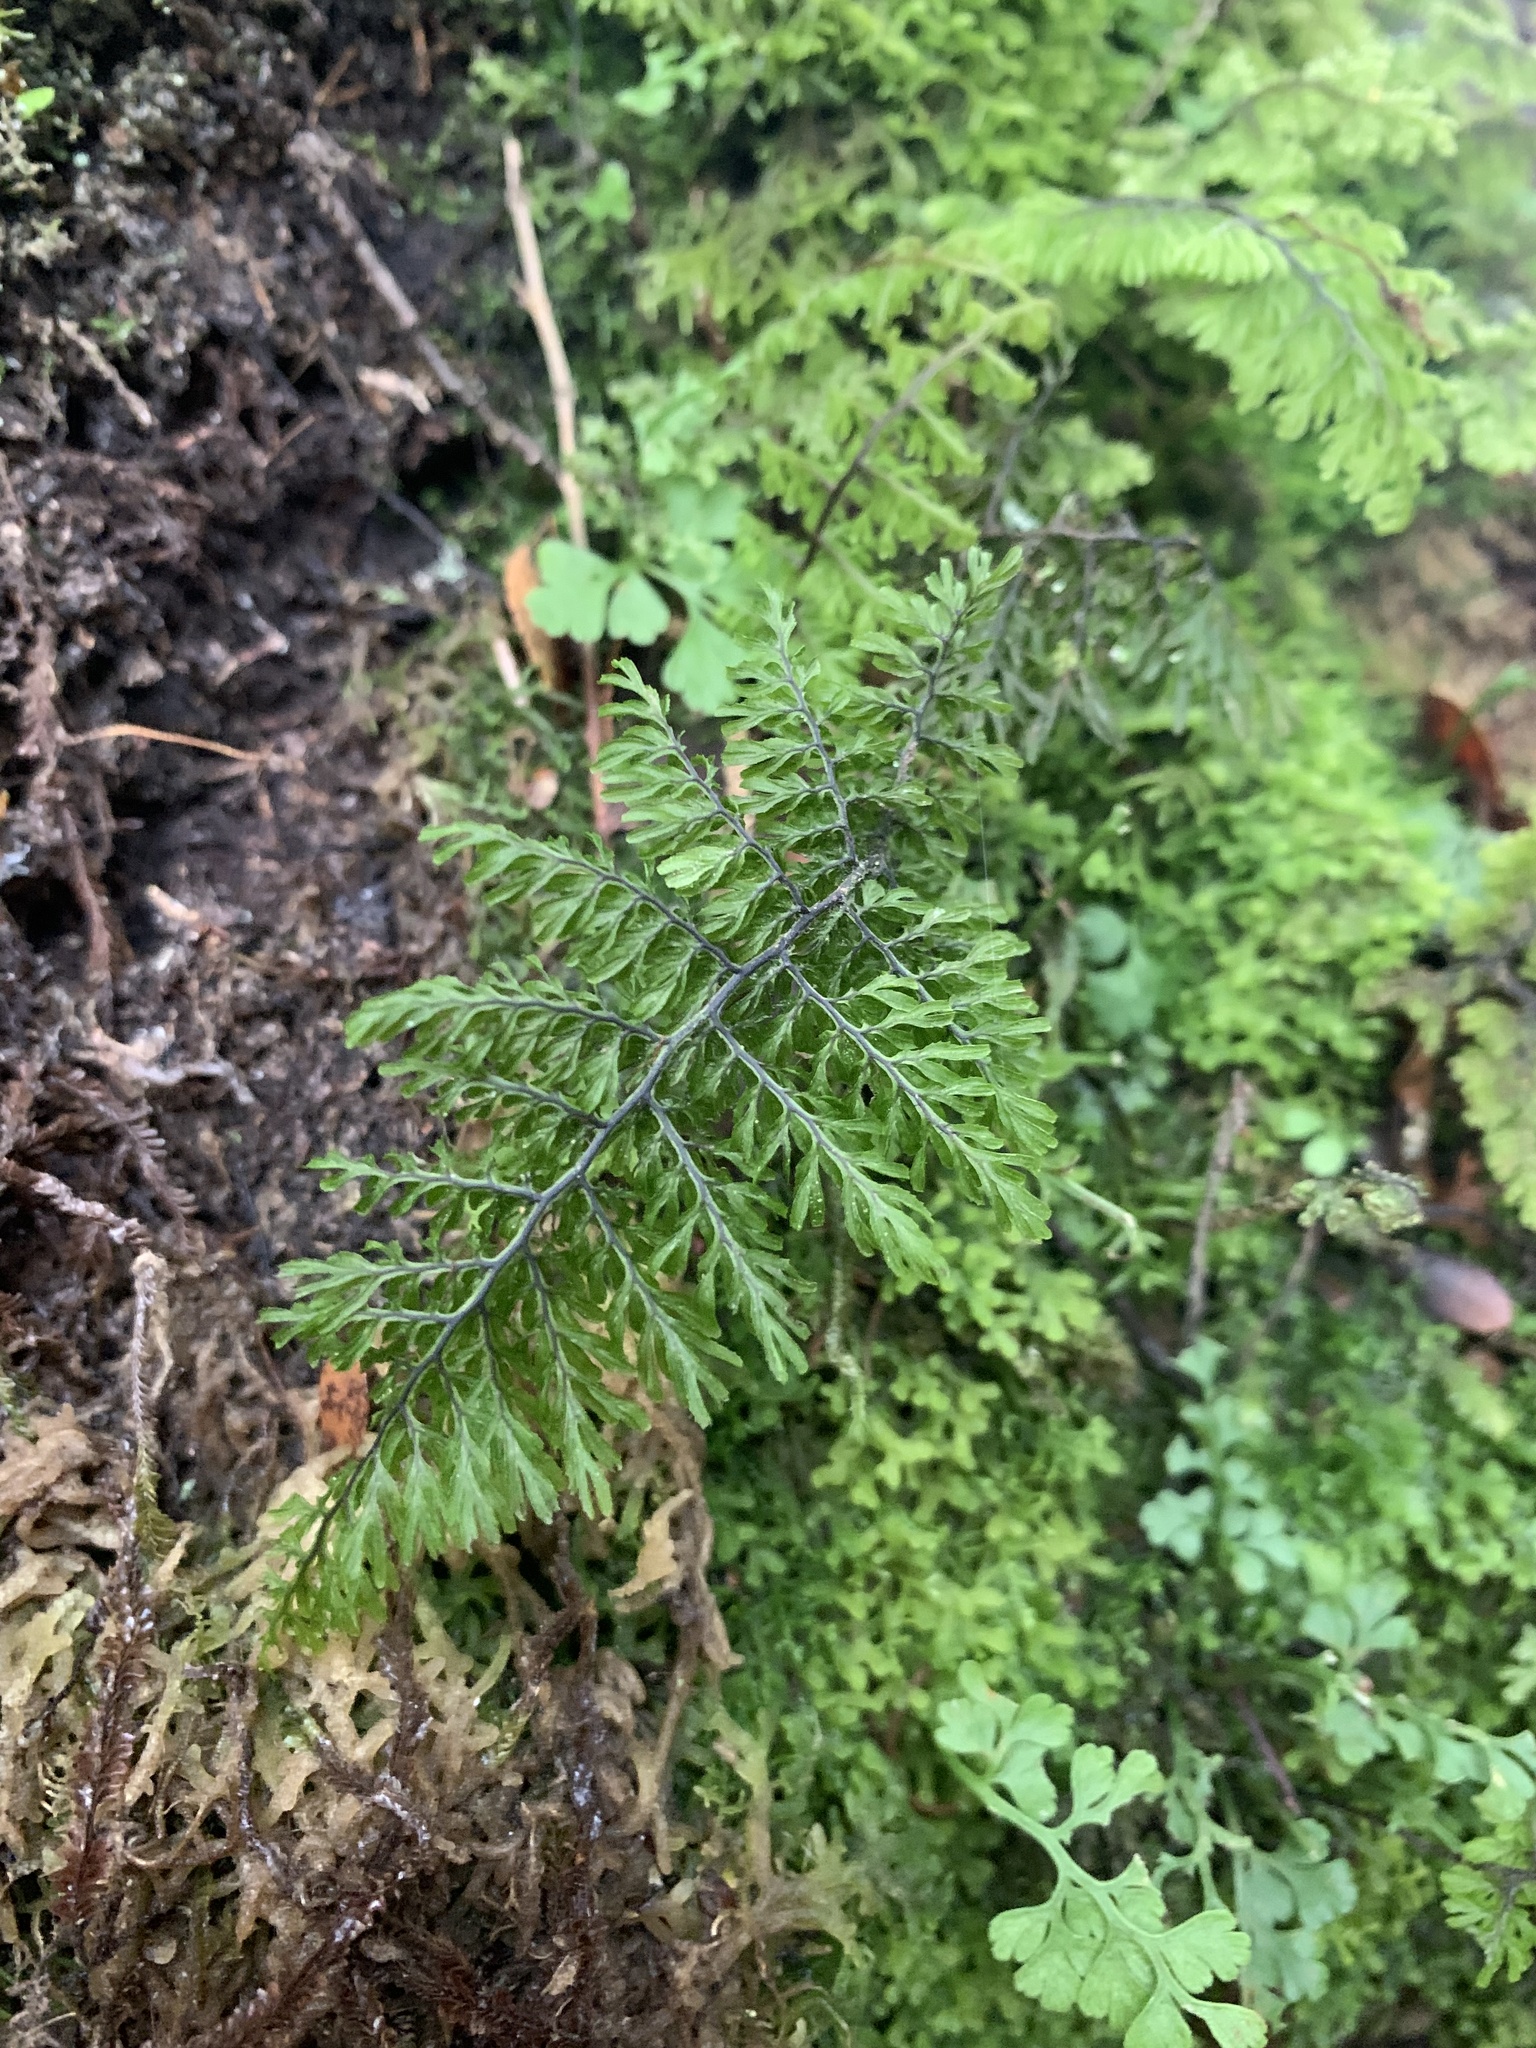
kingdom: Plantae
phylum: Tracheophyta
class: Polypodiopsida
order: Hymenophyllales
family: Hymenophyllaceae
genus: Hymenophyllum
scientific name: Hymenophyllum dentatum
